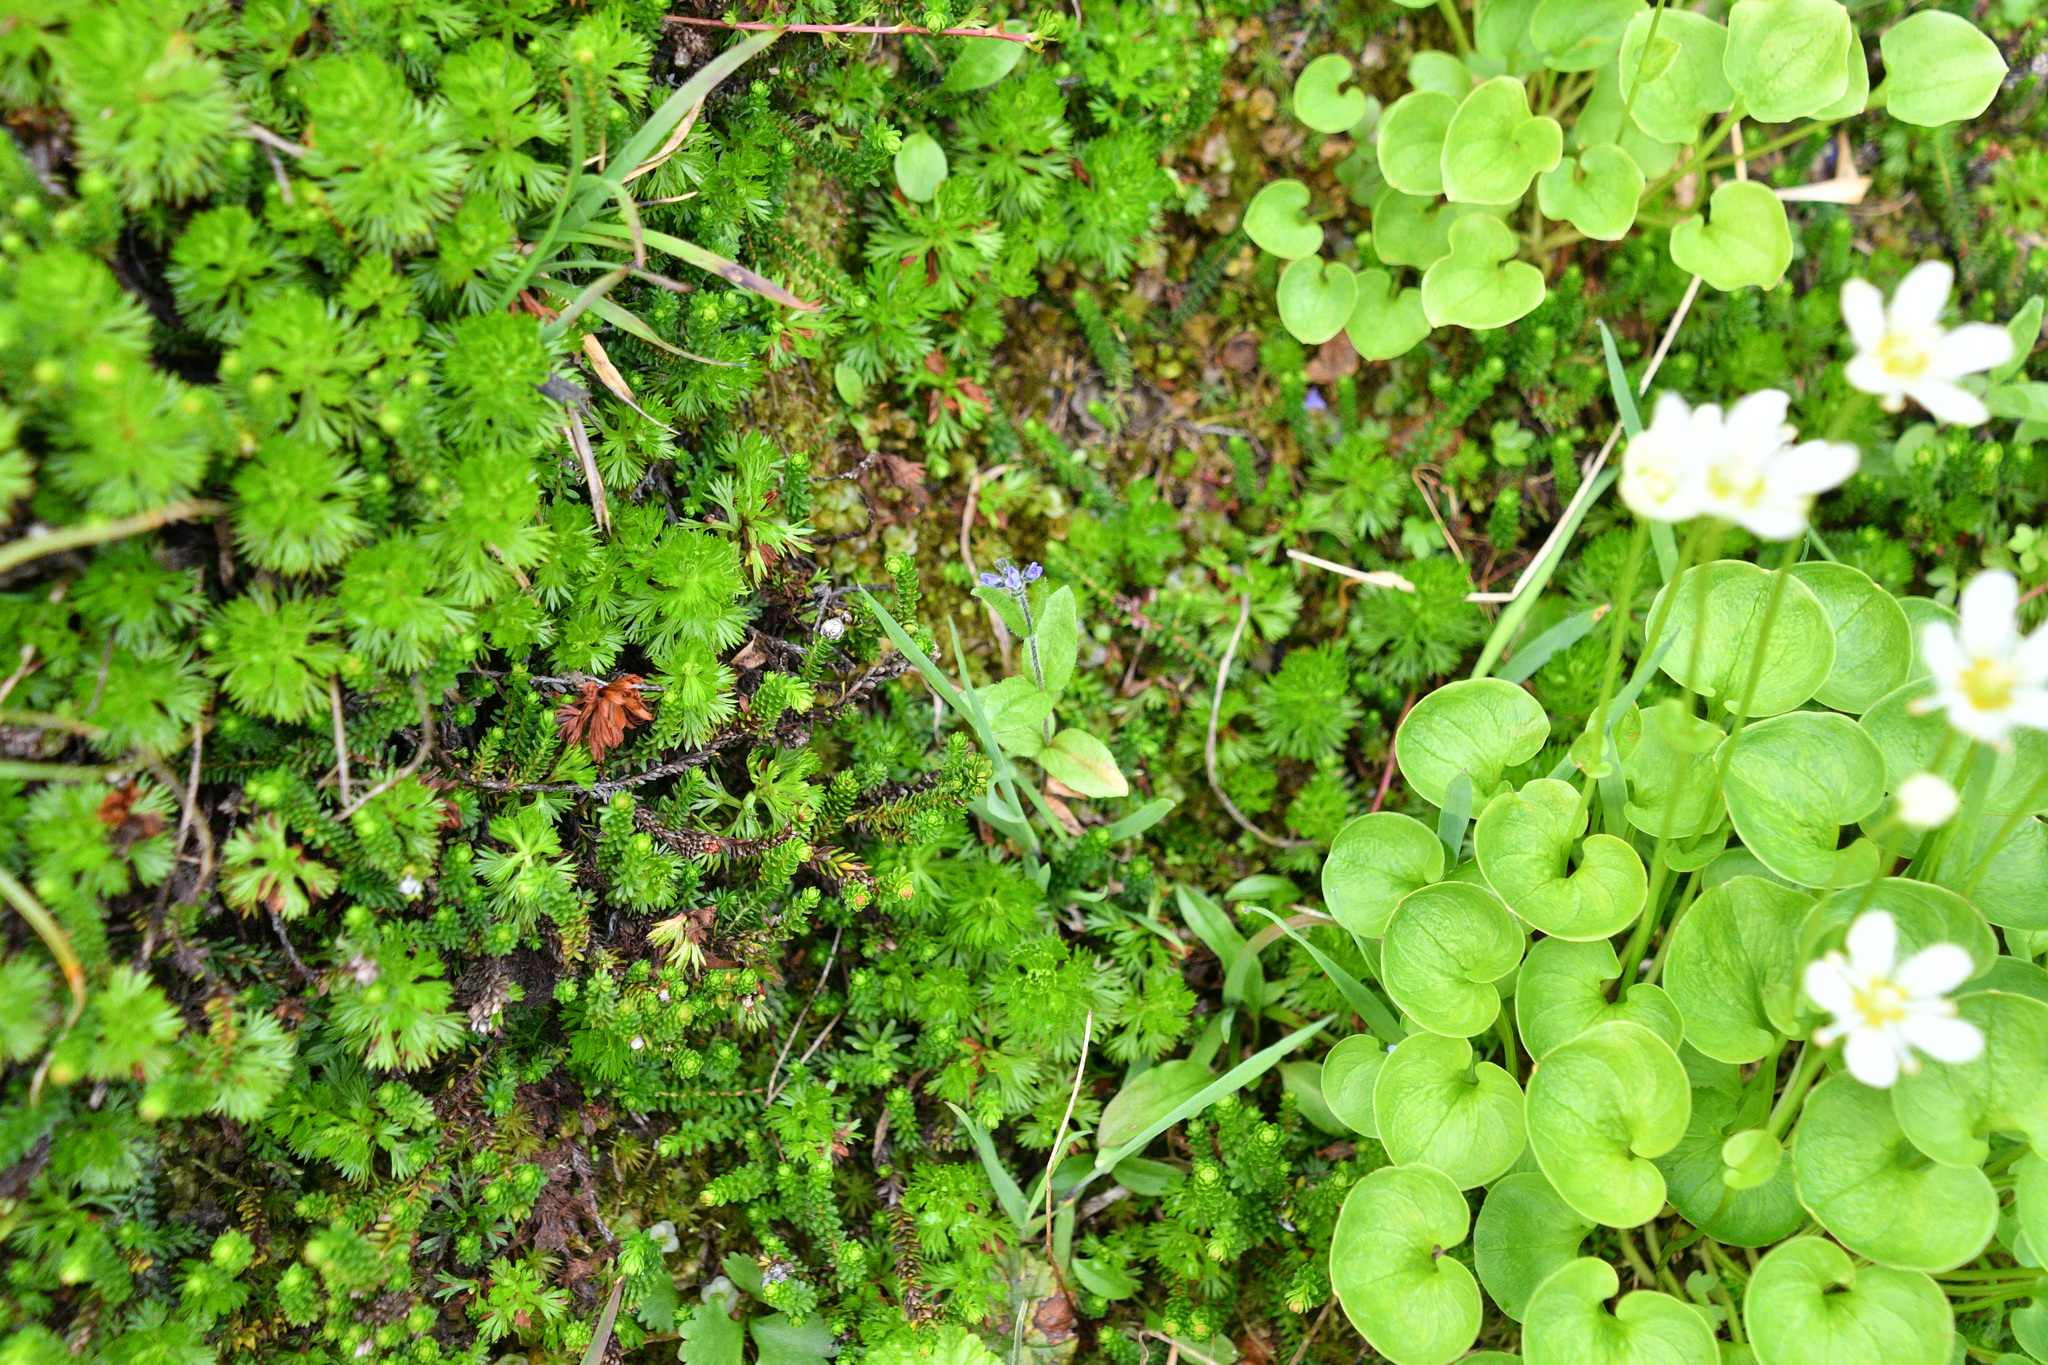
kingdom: Plantae
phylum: Tracheophyta
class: Magnoliopsida
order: Lamiales
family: Plantaginaceae
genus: Veronica
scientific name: Veronica wormskjoldii
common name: American alpine speedwell
